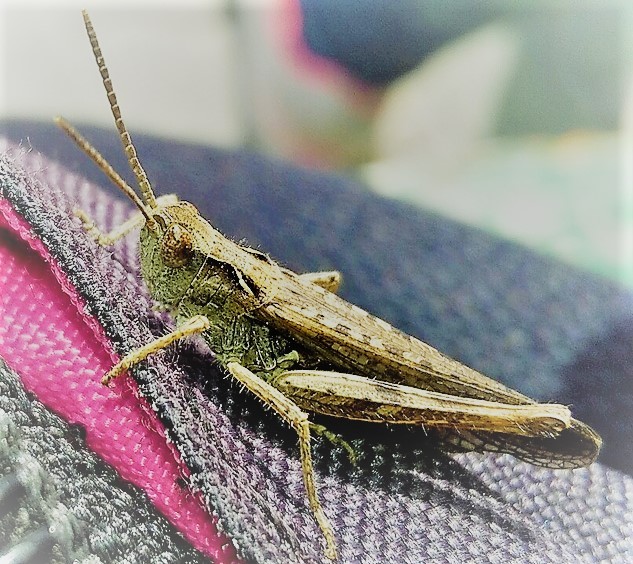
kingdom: Animalia
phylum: Arthropoda
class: Insecta
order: Orthoptera
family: Acrididae
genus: Glyptobothrus
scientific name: Glyptobothrus
